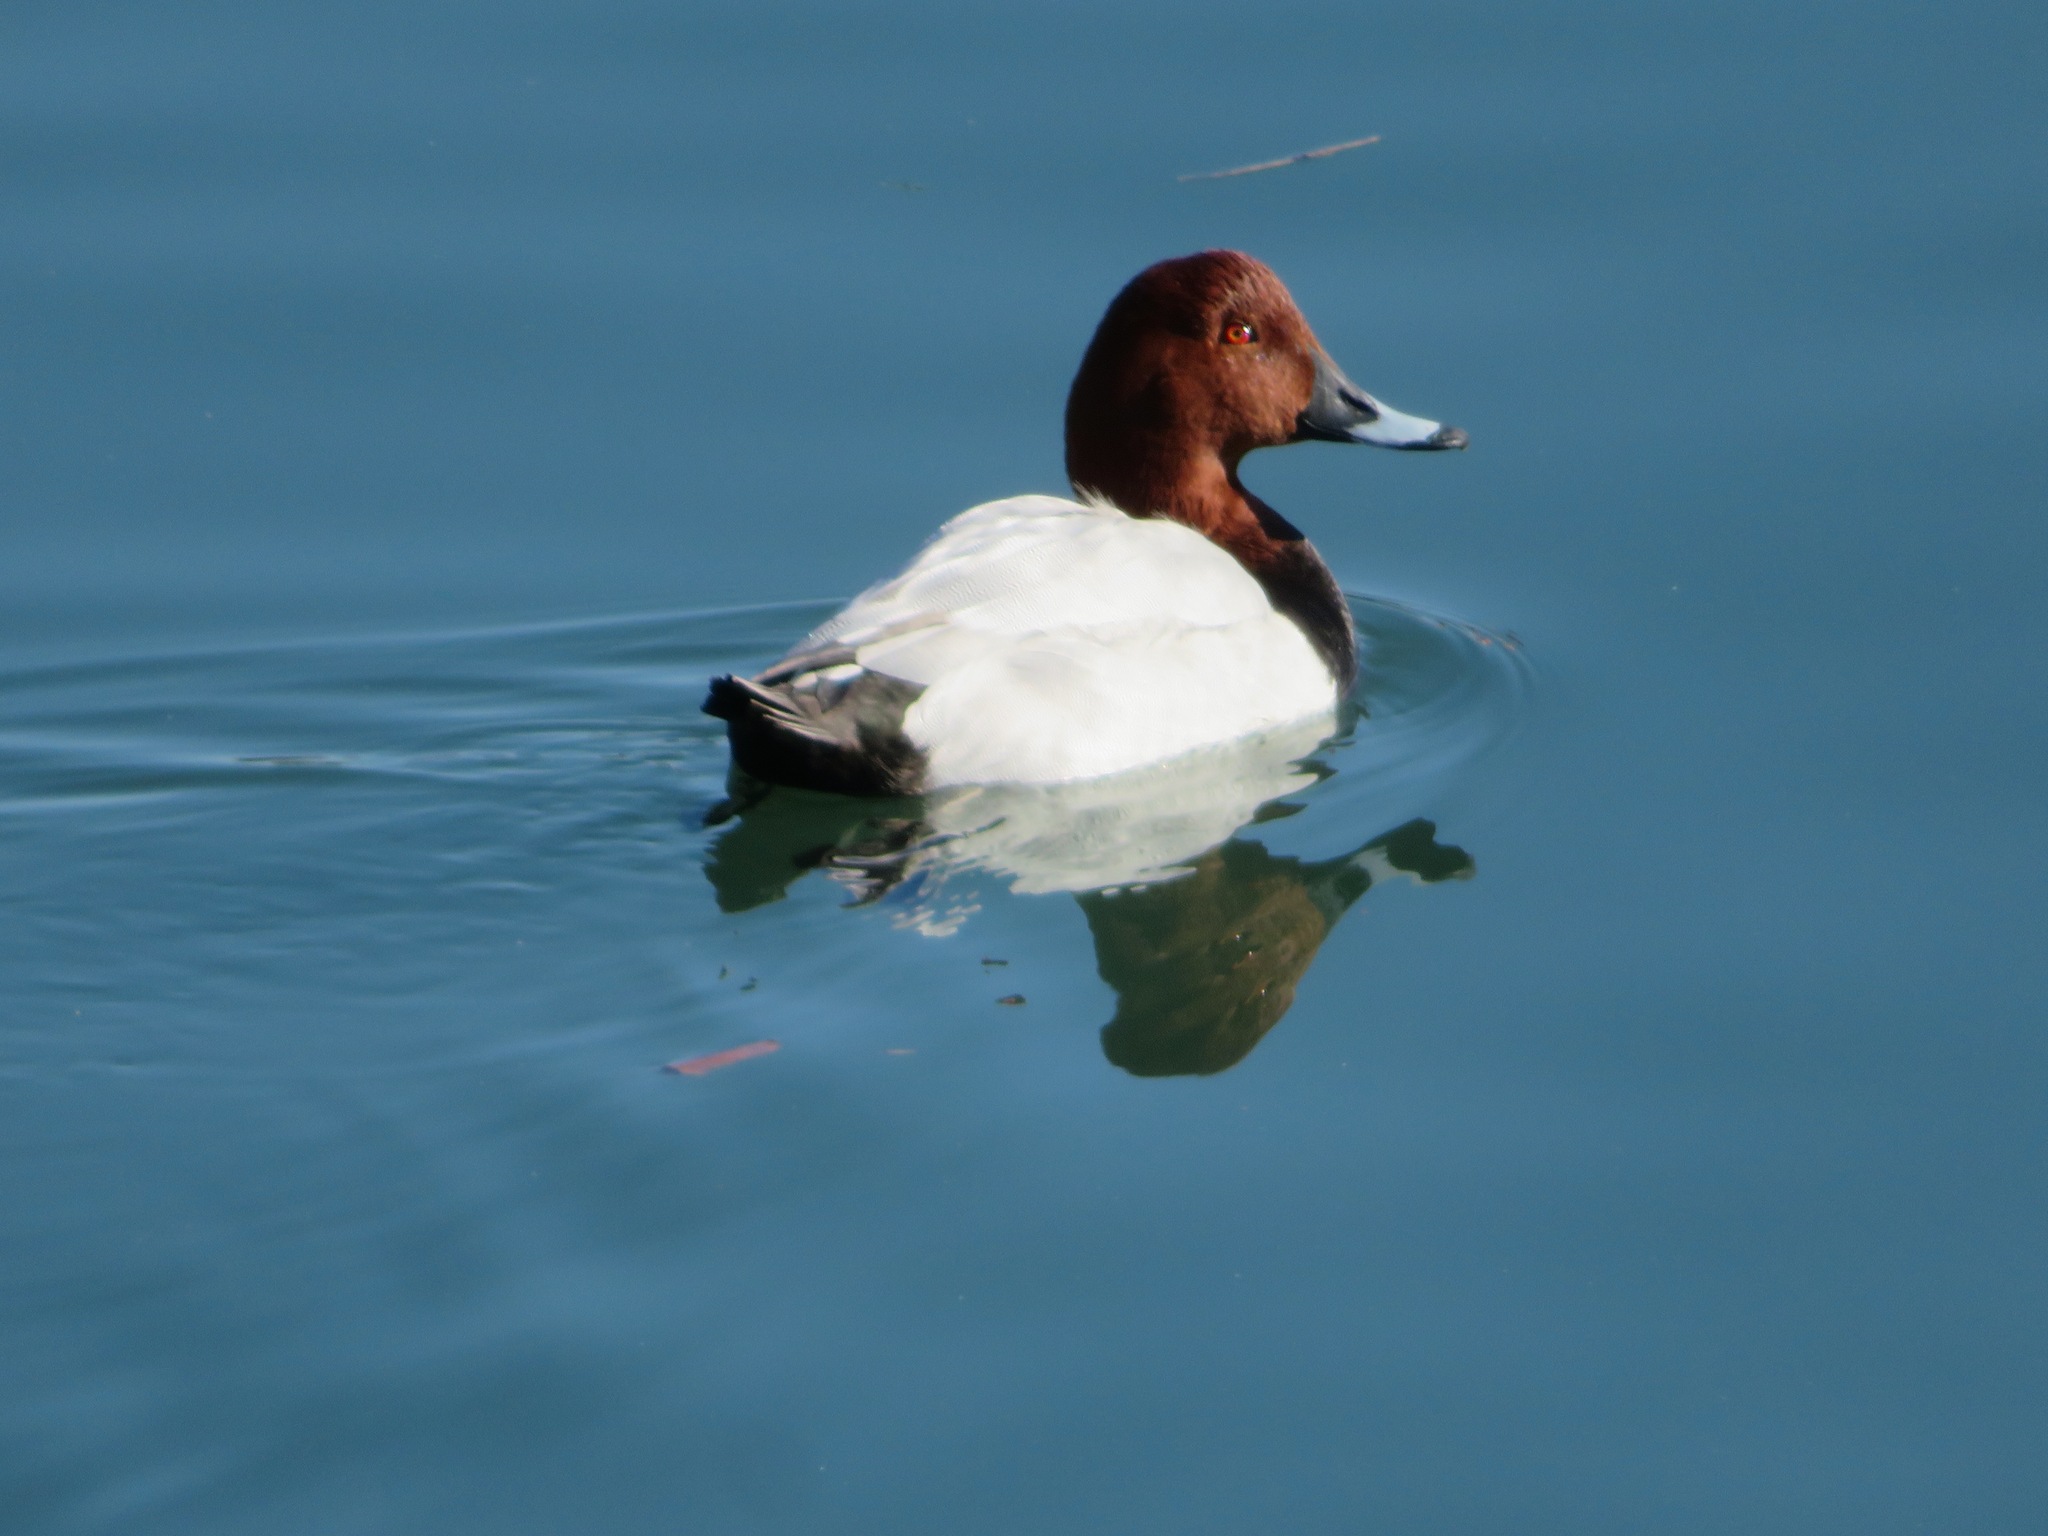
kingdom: Animalia
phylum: Chordata
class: Aves
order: Anseriformes
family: Anatidae
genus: Aythya
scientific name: Aythya ferina
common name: Common pochard
